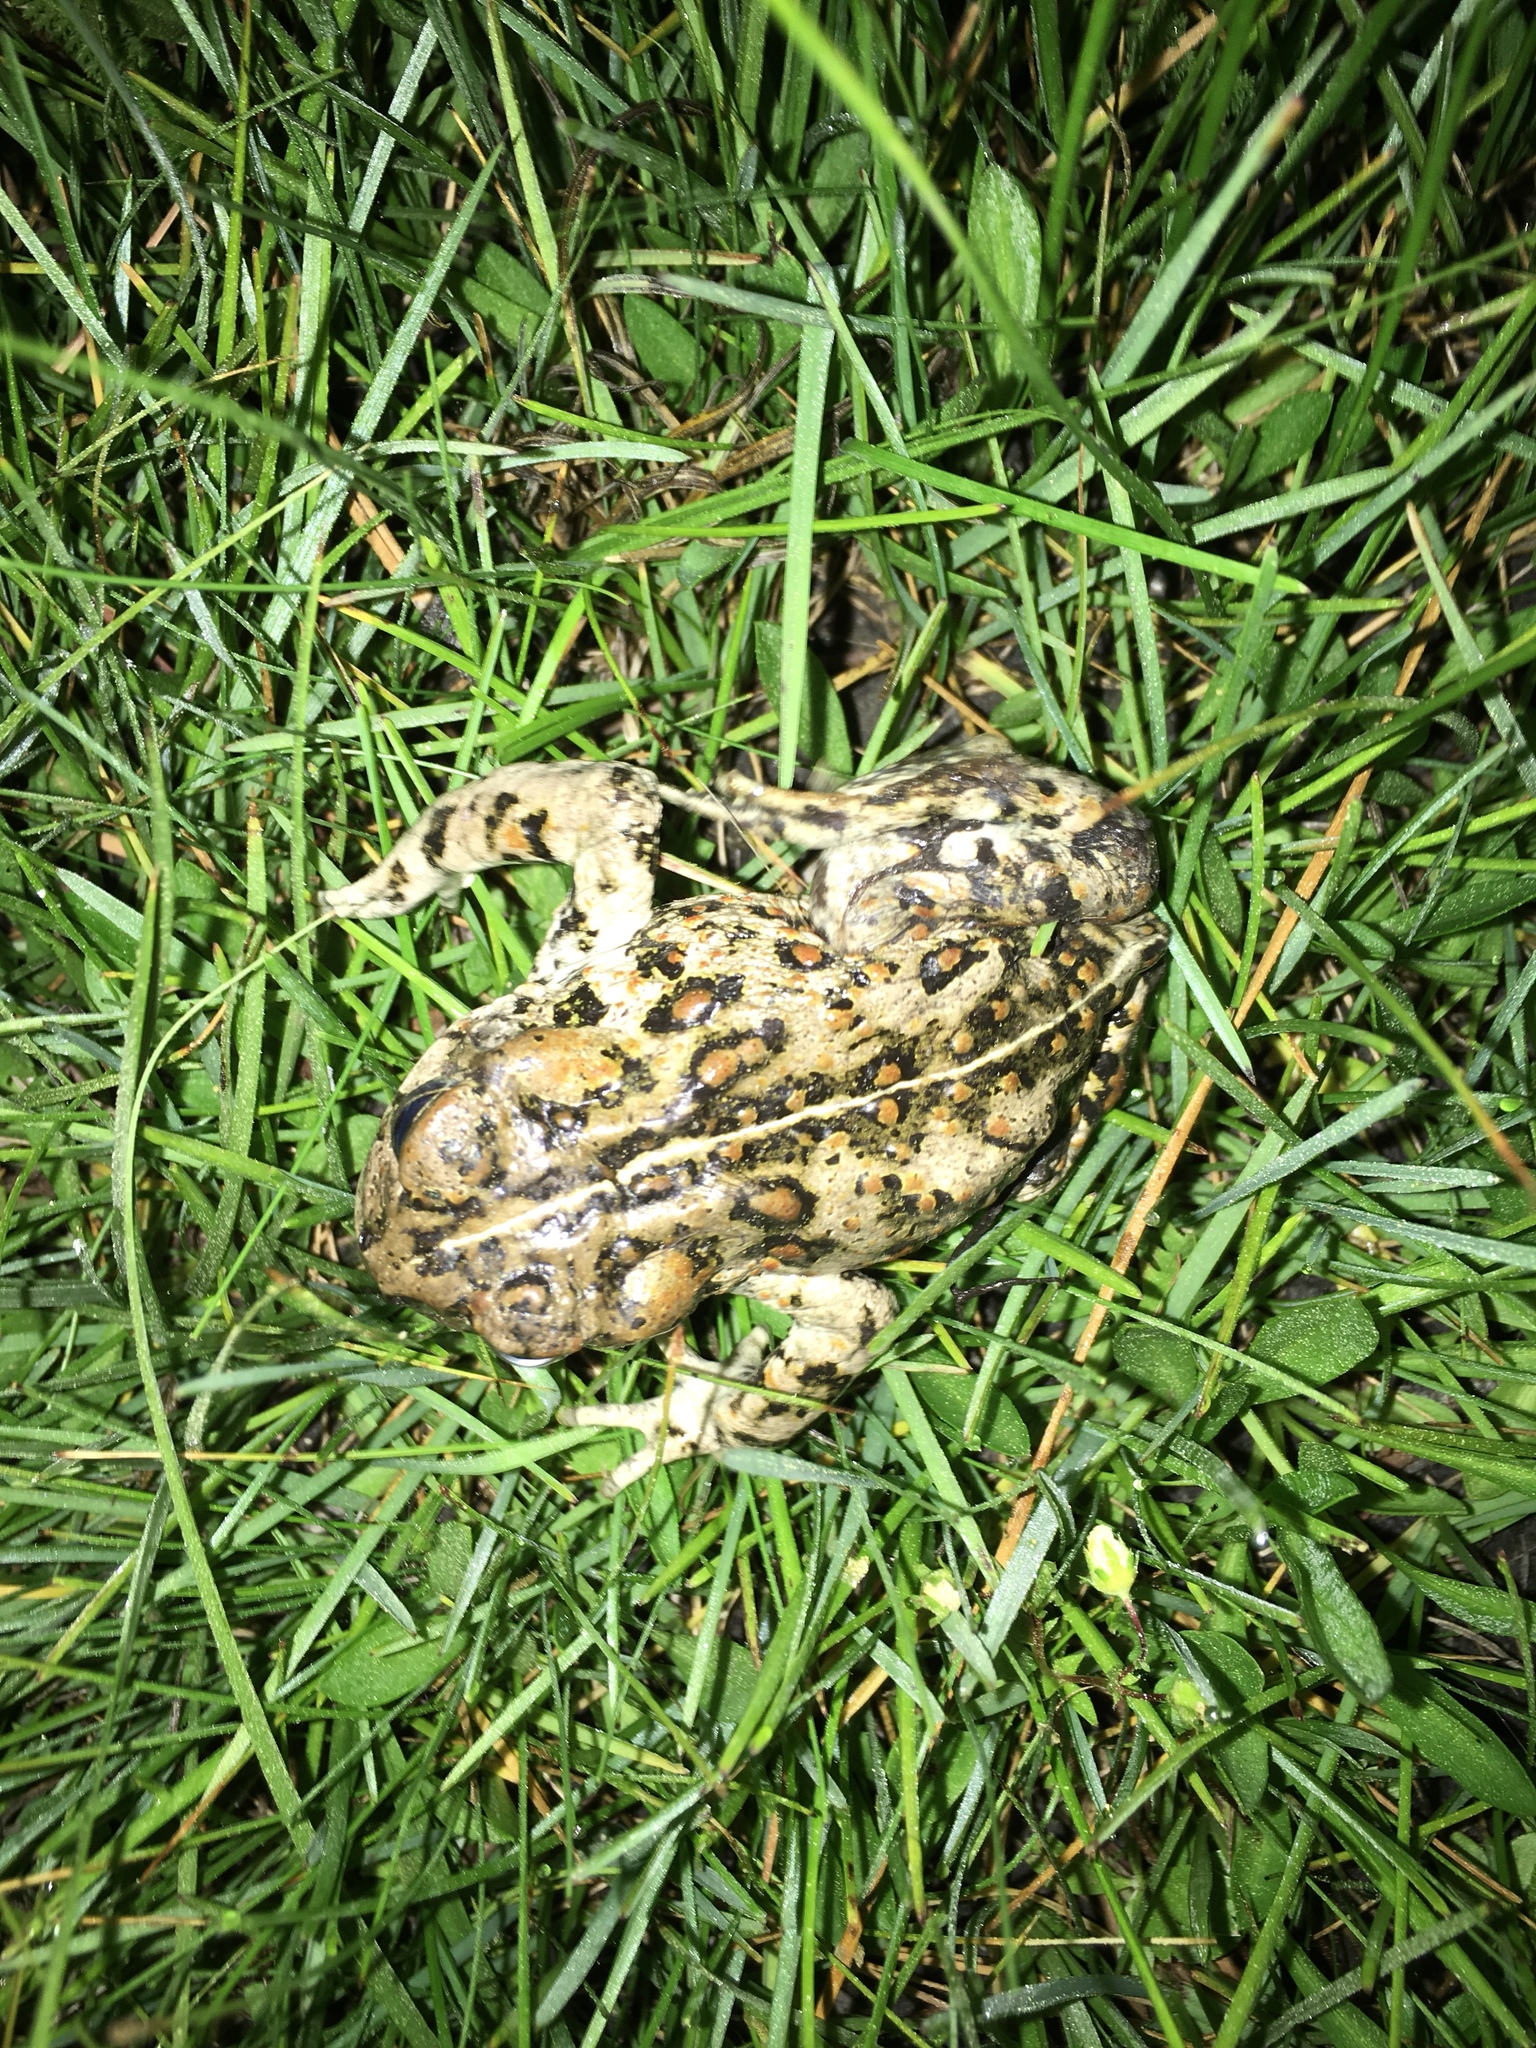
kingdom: Animalia
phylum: Chordata
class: Amphibia
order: Anura
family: Bufonidae
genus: Anaxyrus
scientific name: Anaxyrus boreas
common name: Western toad
